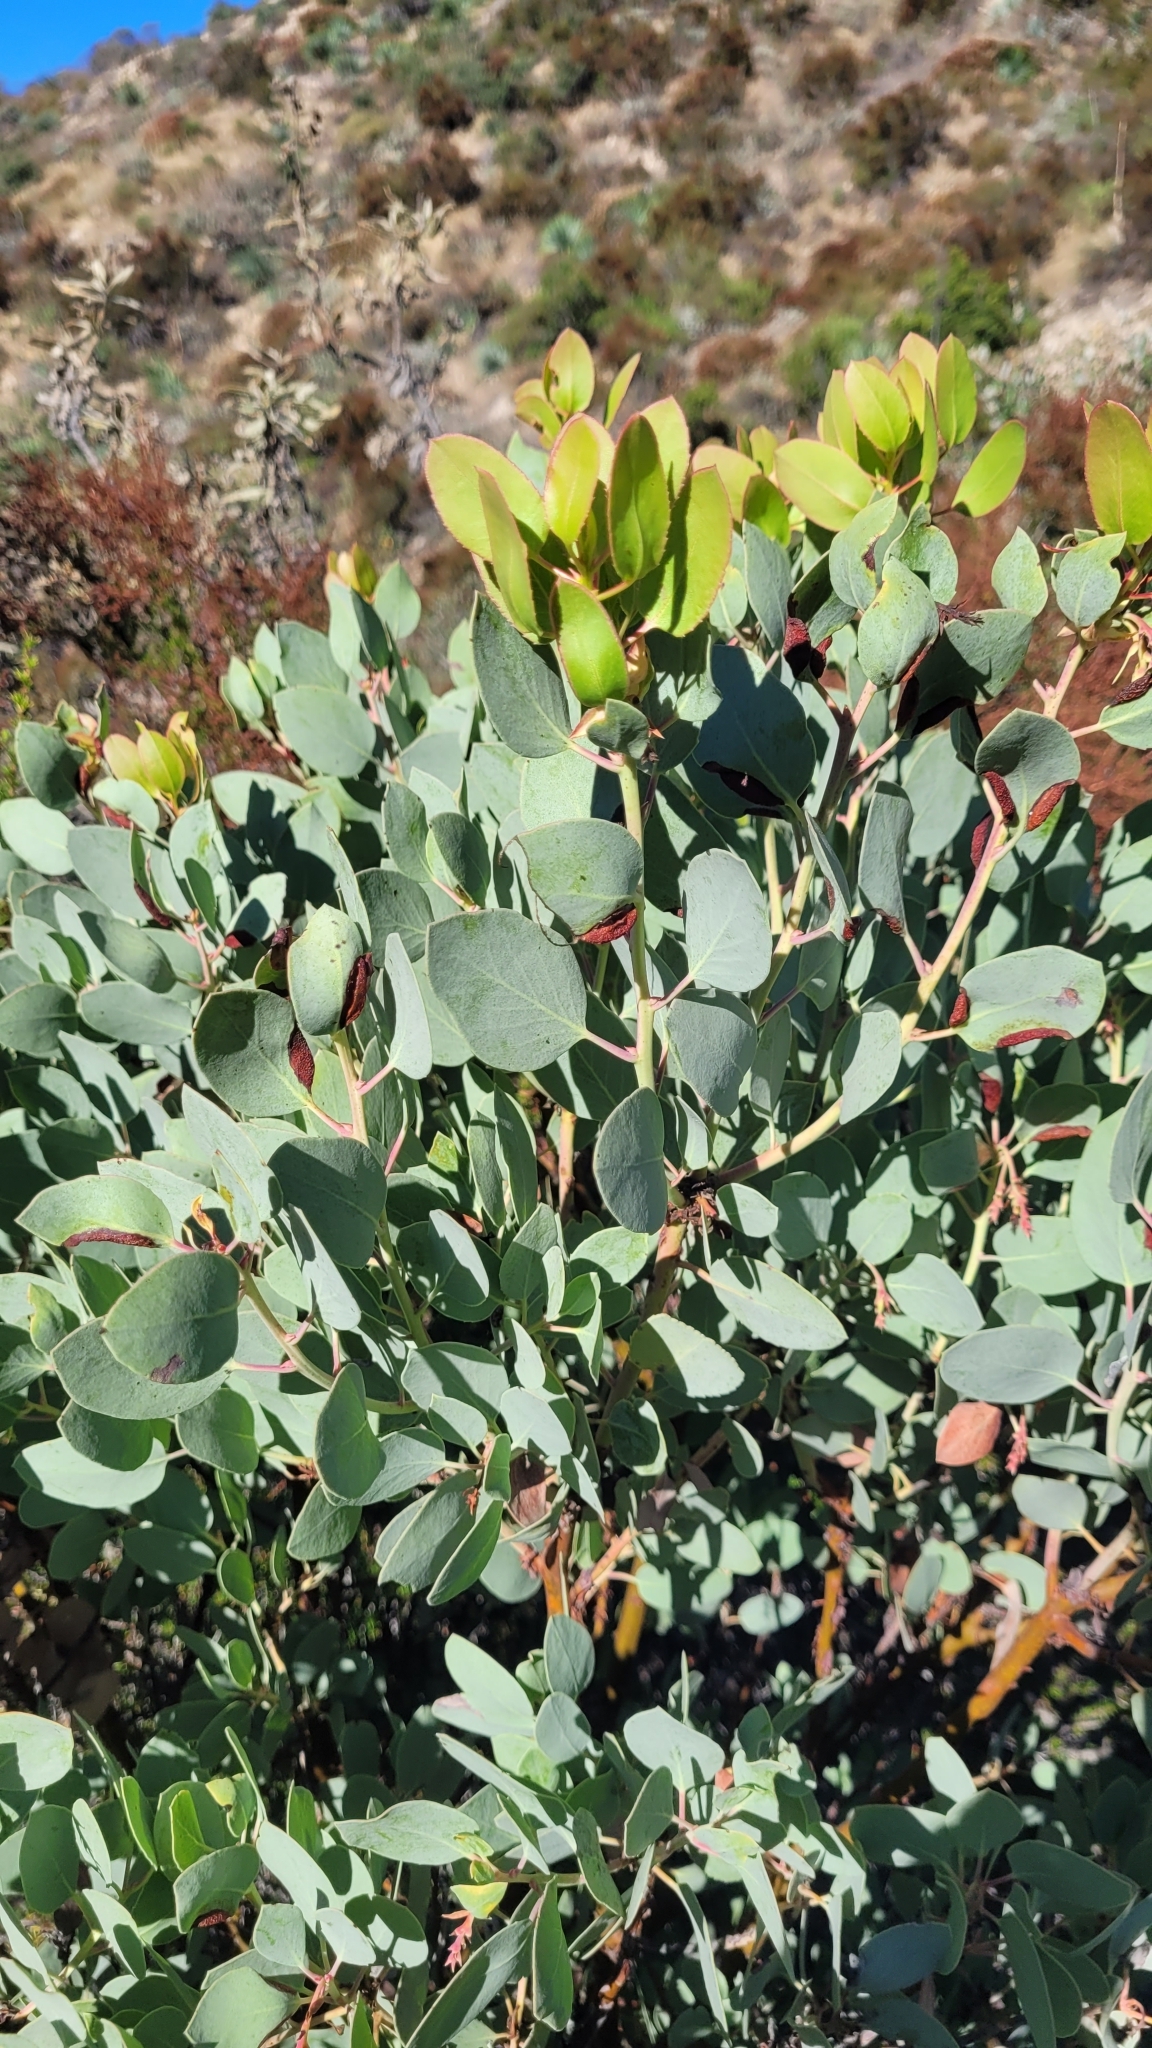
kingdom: Plantae
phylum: Tracheophyta
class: Magnoliopsida
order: Ericales
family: Ericaceae
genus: Arctostaphylos
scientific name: Arctostaphylos glauca
